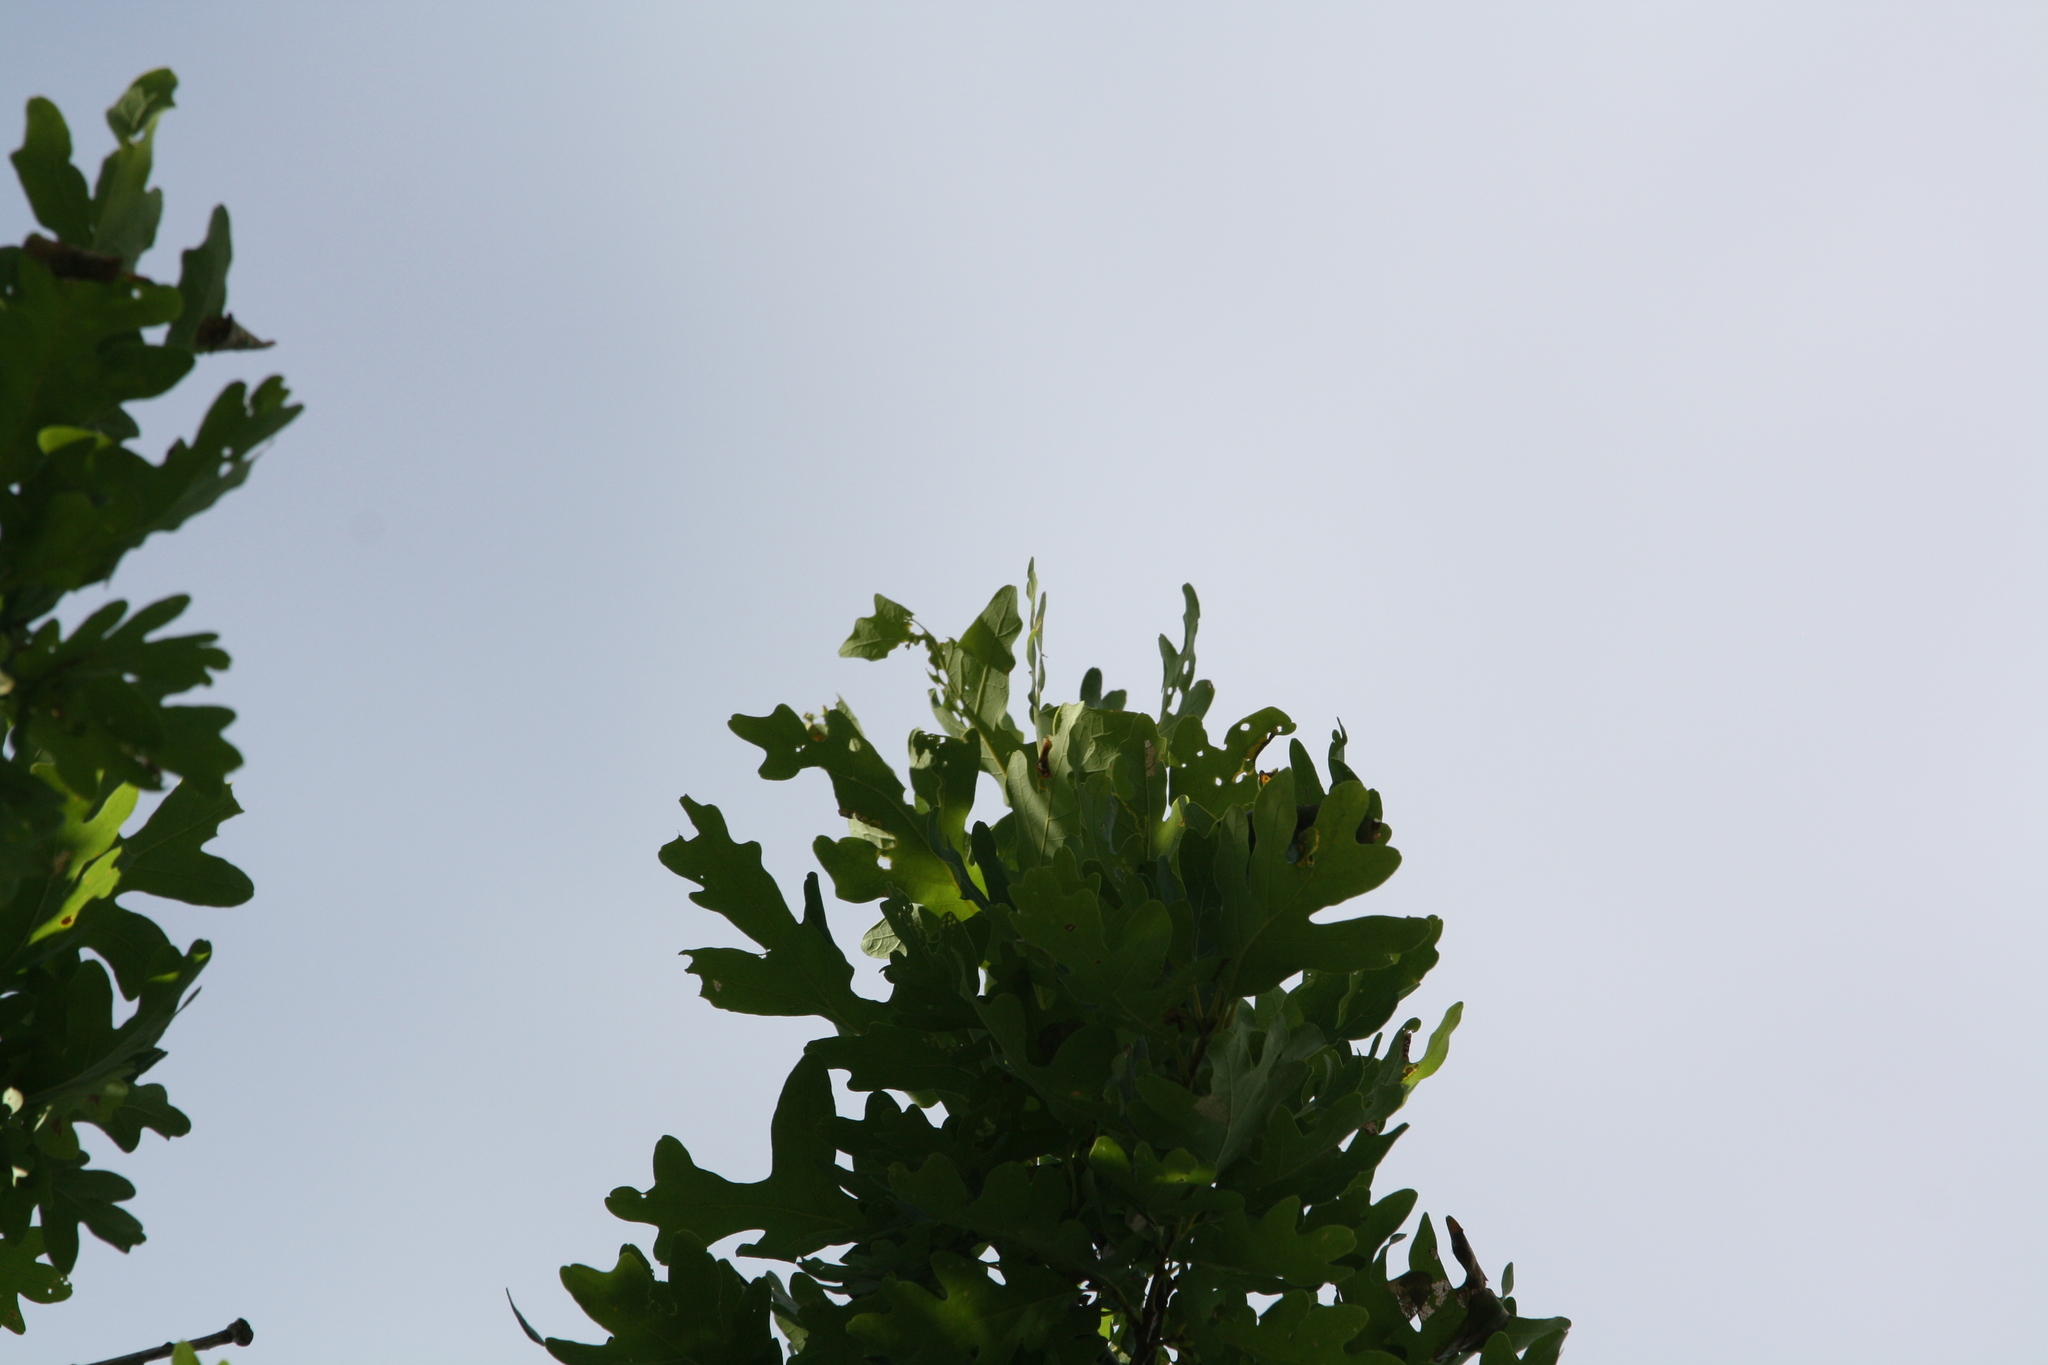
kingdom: Plantae
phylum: Tracheophyta
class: Magnoliopsida
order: Fagales
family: Fagaceae
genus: Quercus
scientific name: Quercus alba
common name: White oak
